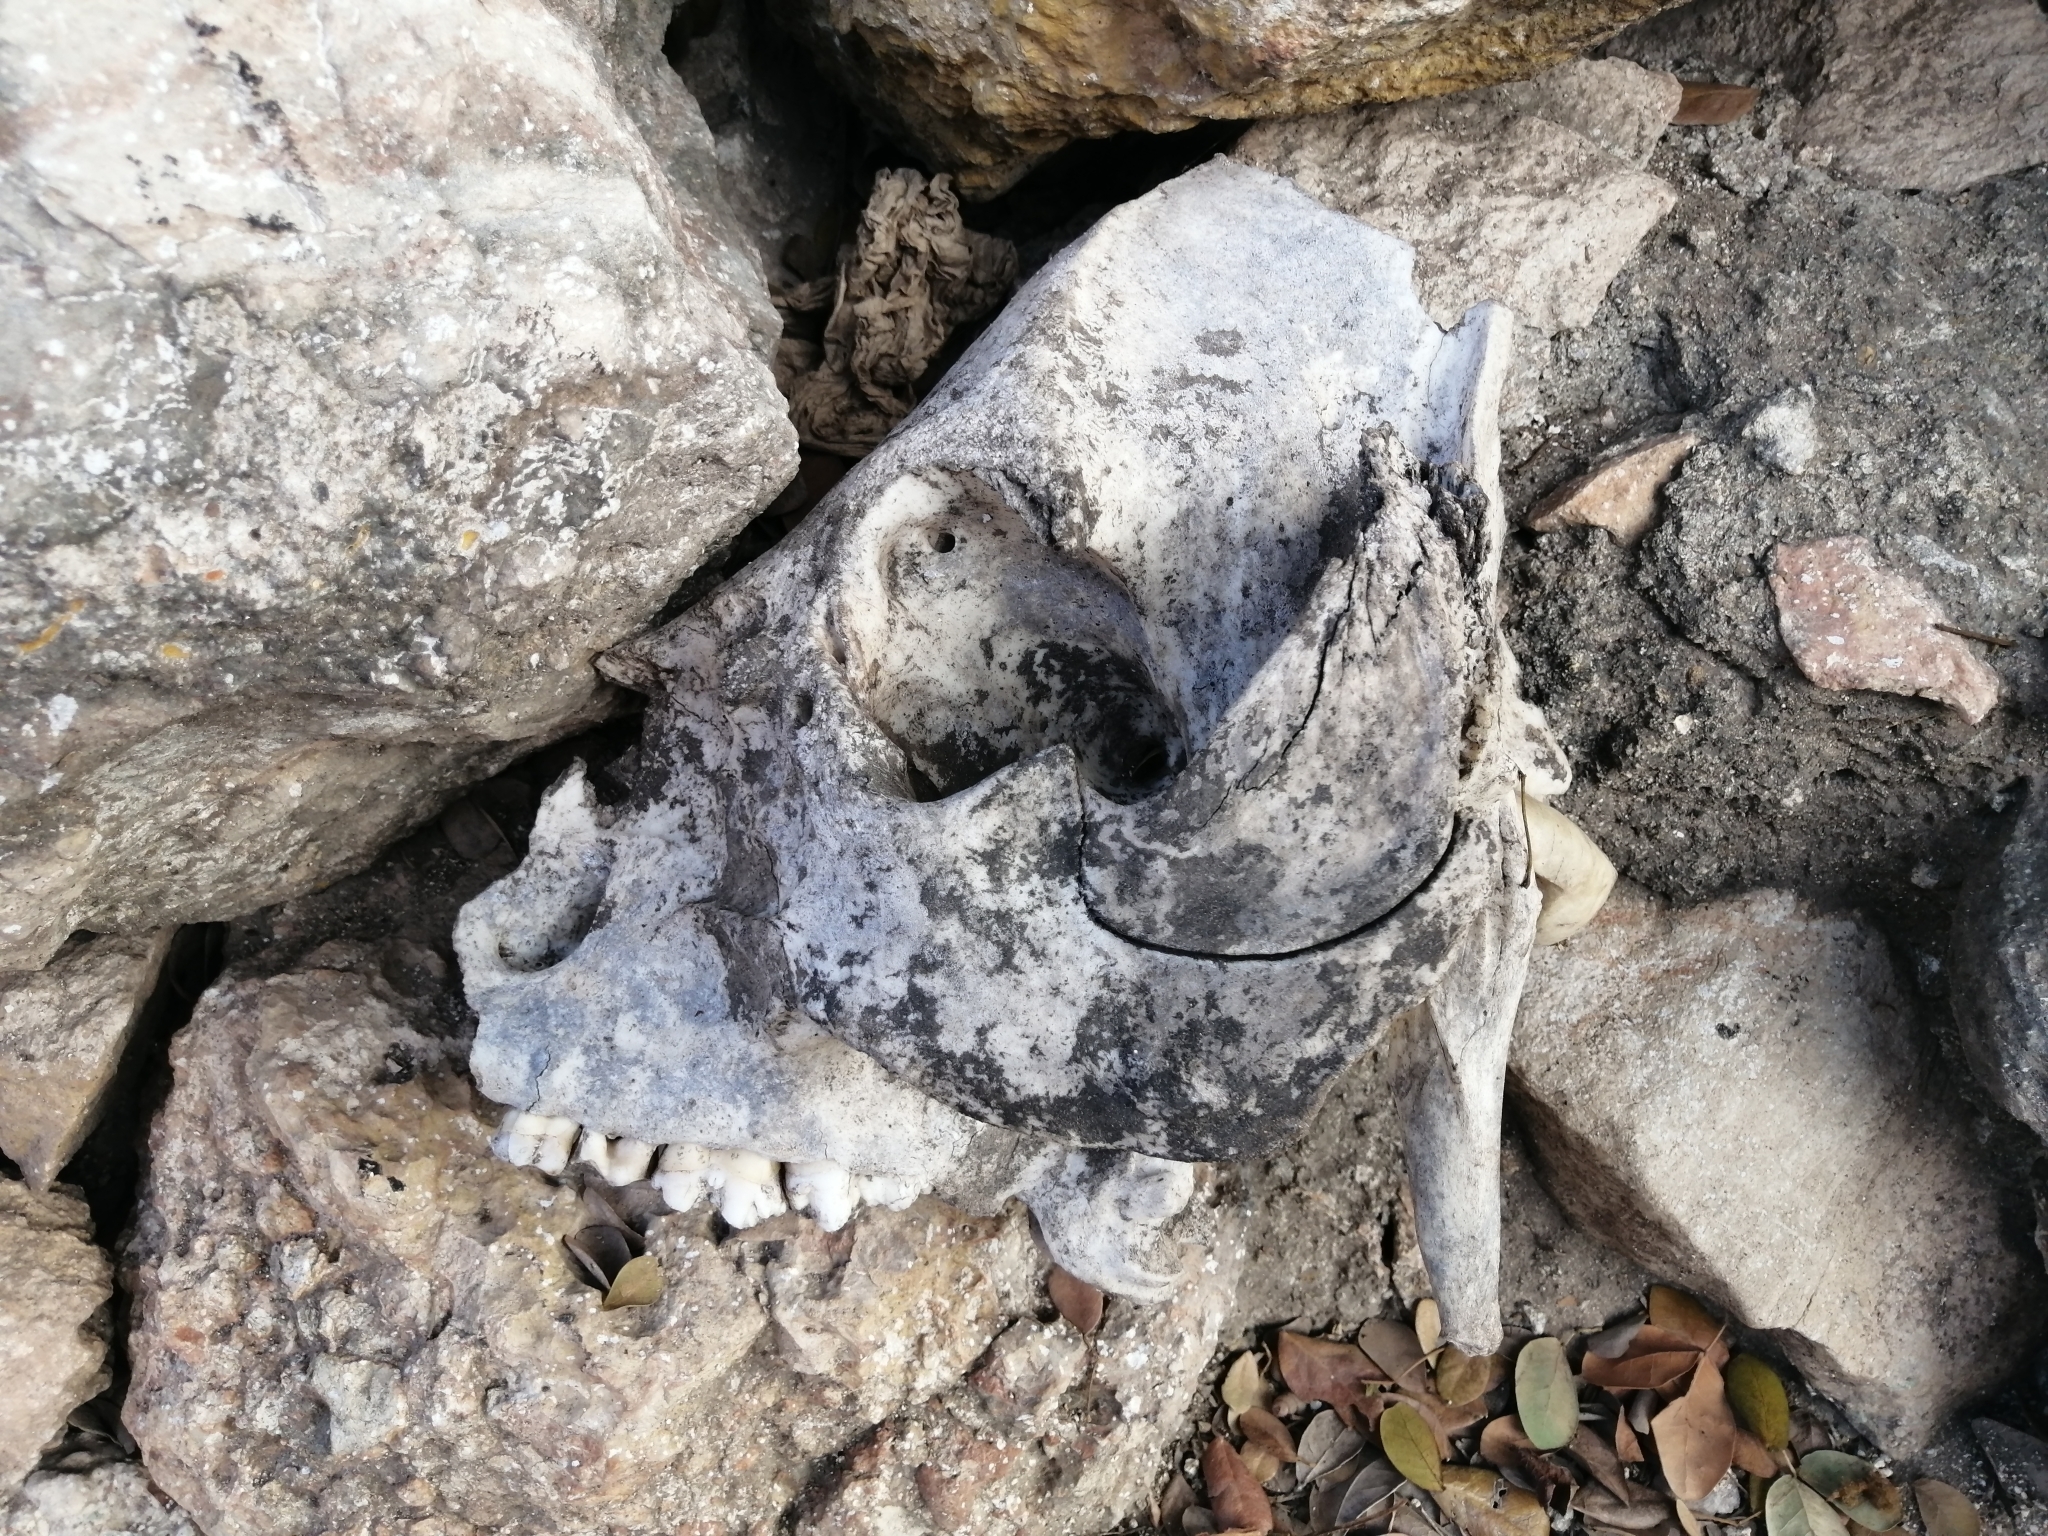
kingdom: Animalia
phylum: Chordata
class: Mammalia
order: Artiodactyla
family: Suidae
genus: Sus
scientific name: Sus scrofa
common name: Wild boar
